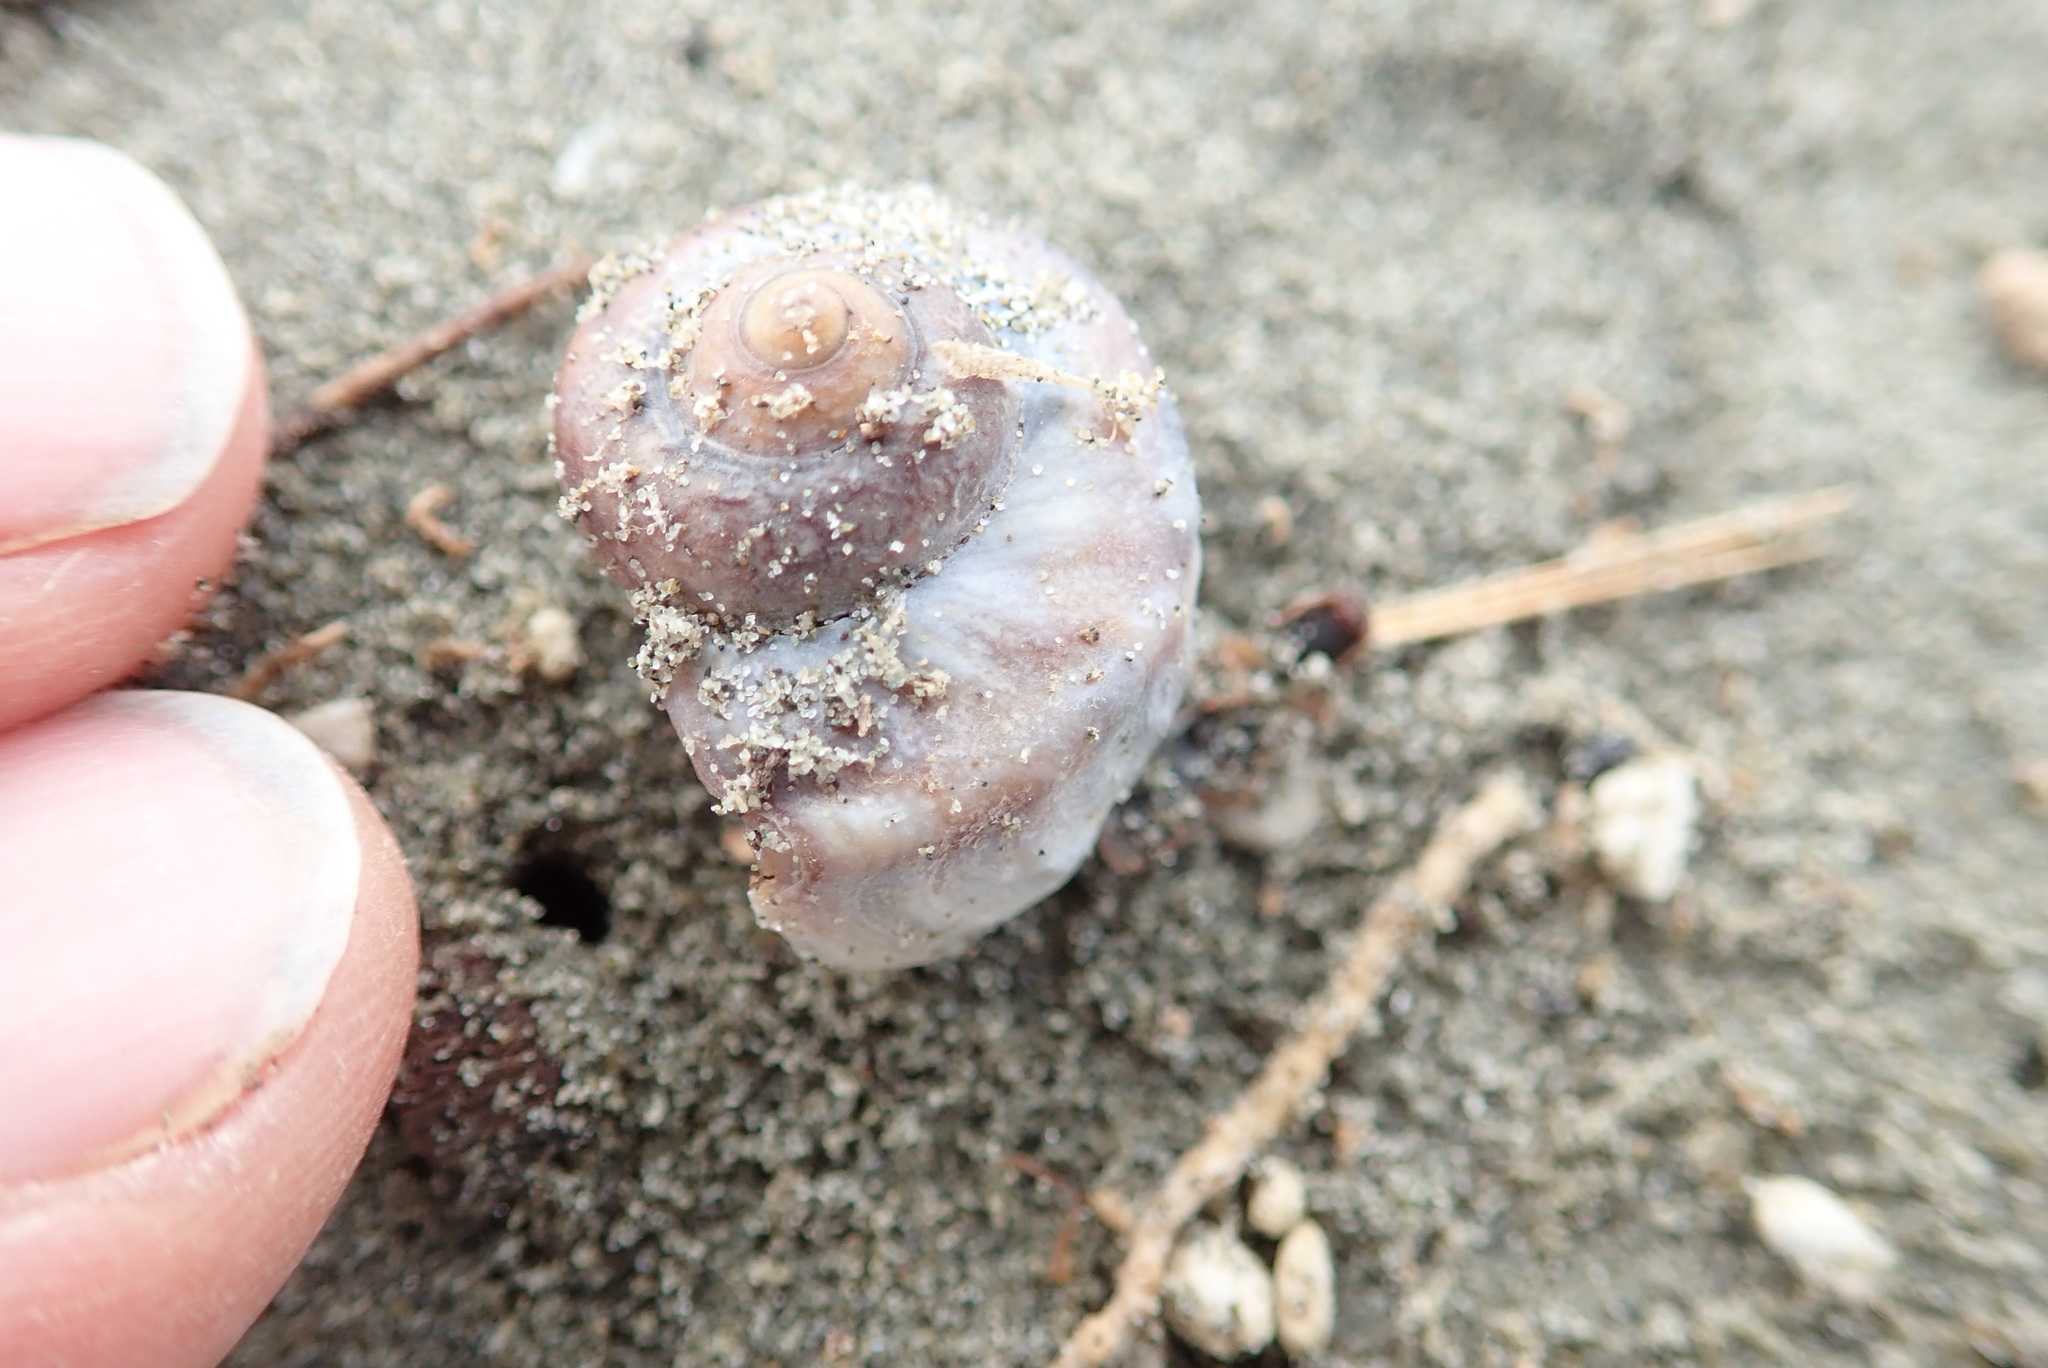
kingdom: Animalia
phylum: Mollusca
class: Gastropoda
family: Amphibolidae
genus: Amphibola
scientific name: Amphibola crenata
